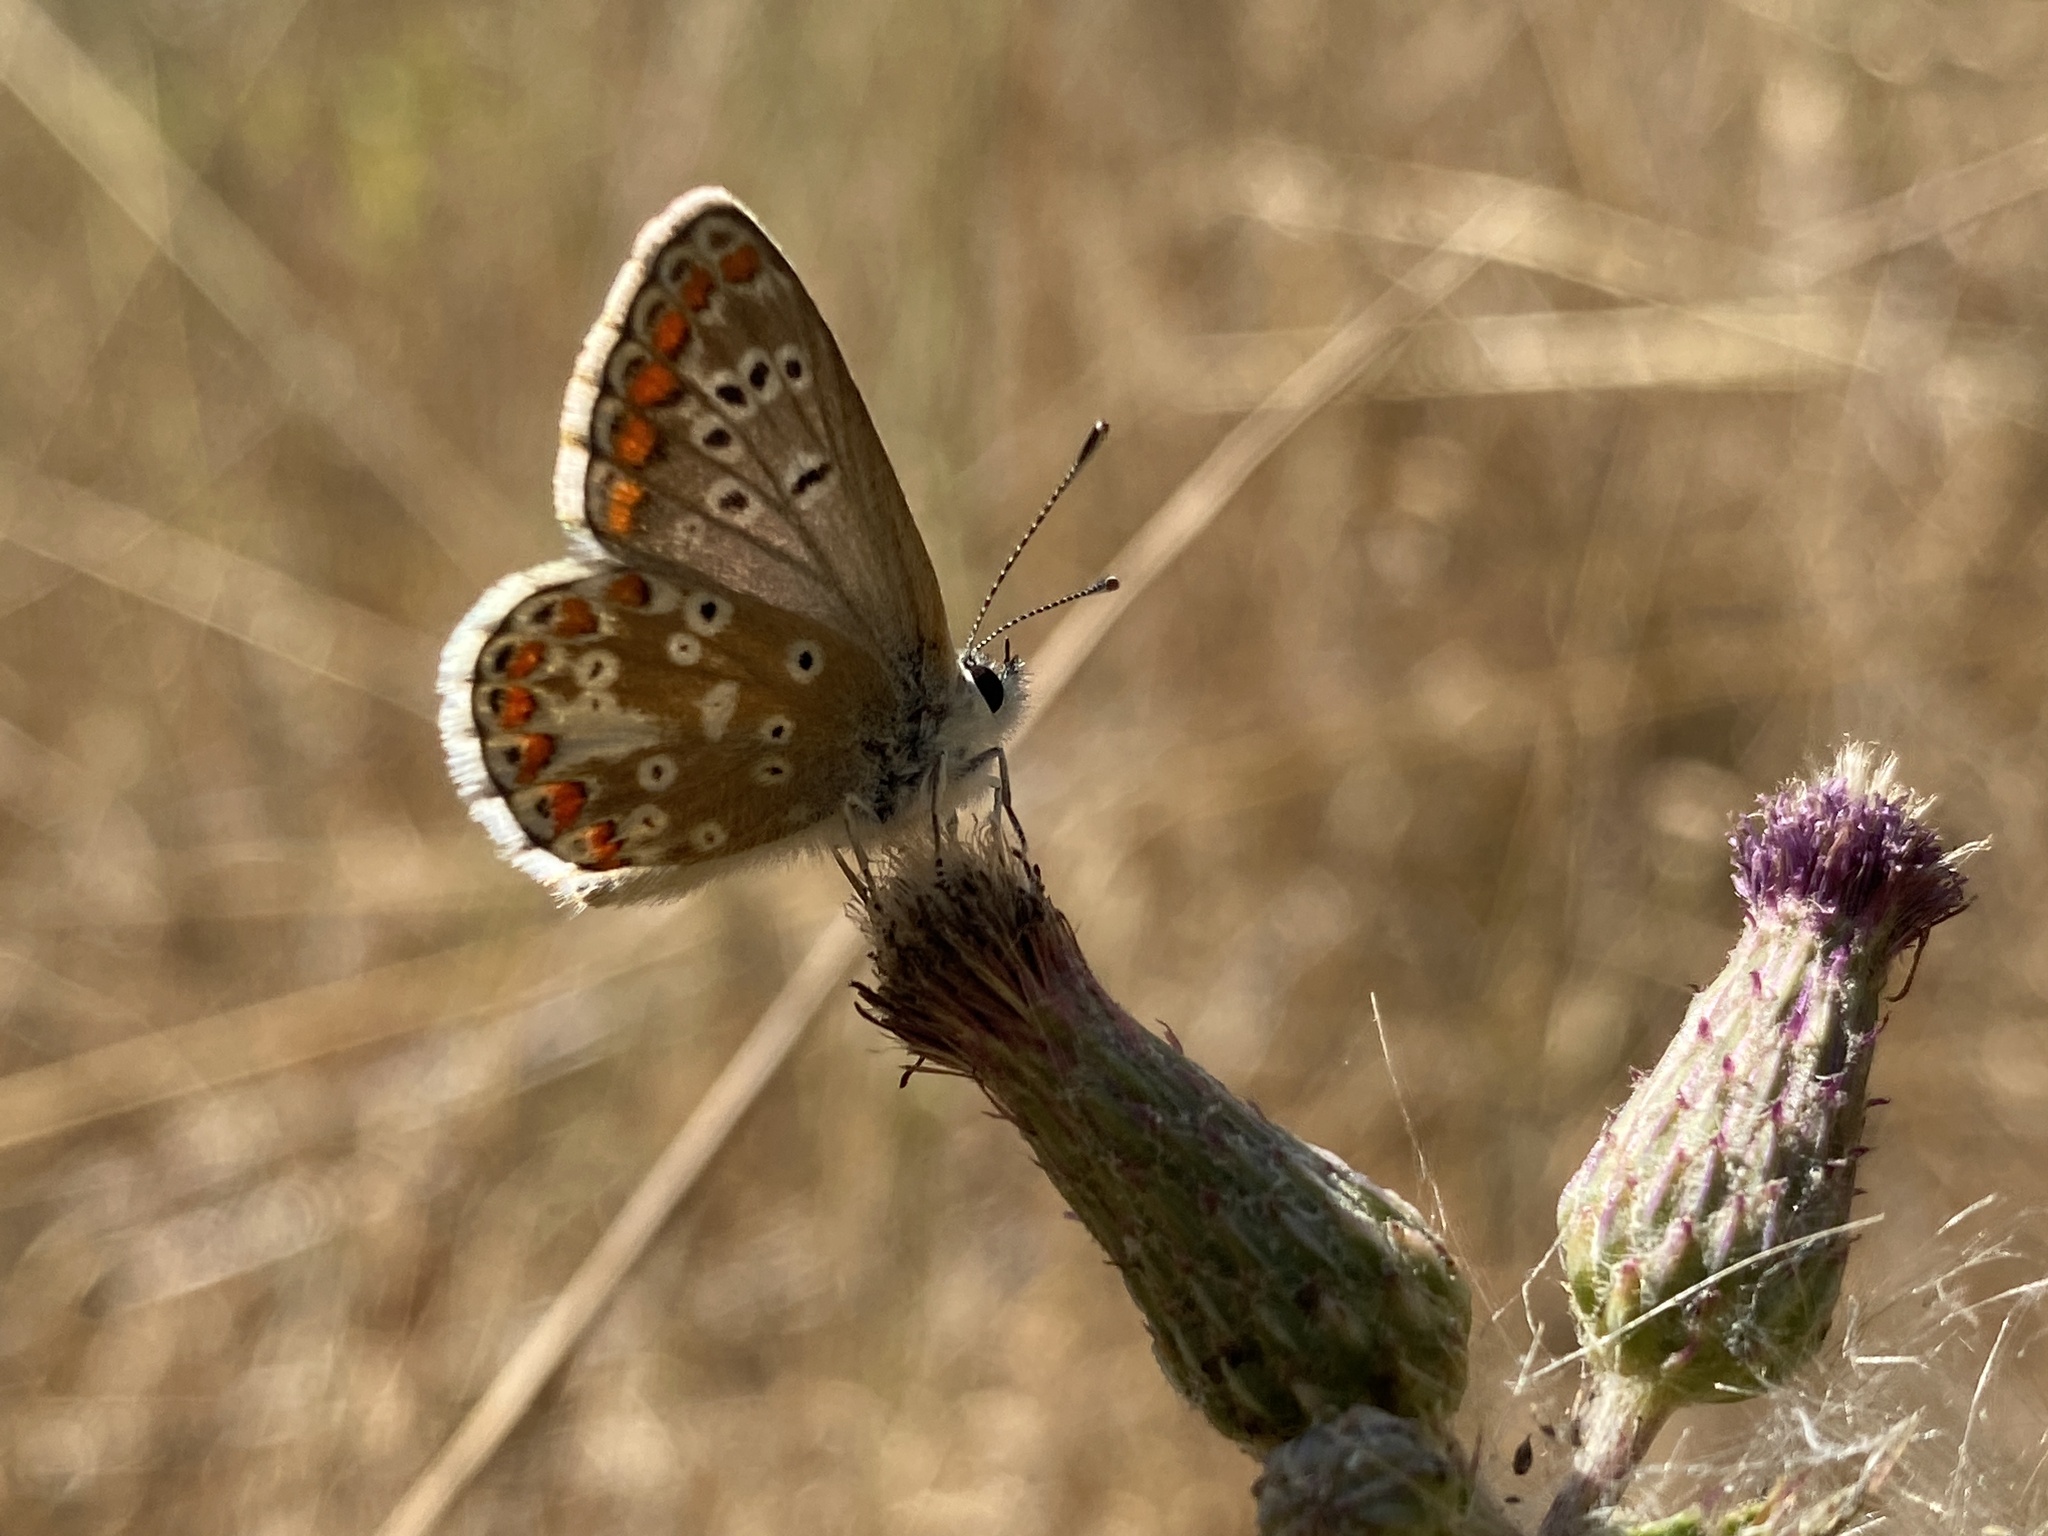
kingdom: Animalia
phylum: Arthropoda
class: Insecta
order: Lepidoptera
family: Lycaenidae
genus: Aricia
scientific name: Aricia agestis
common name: Brown argus
